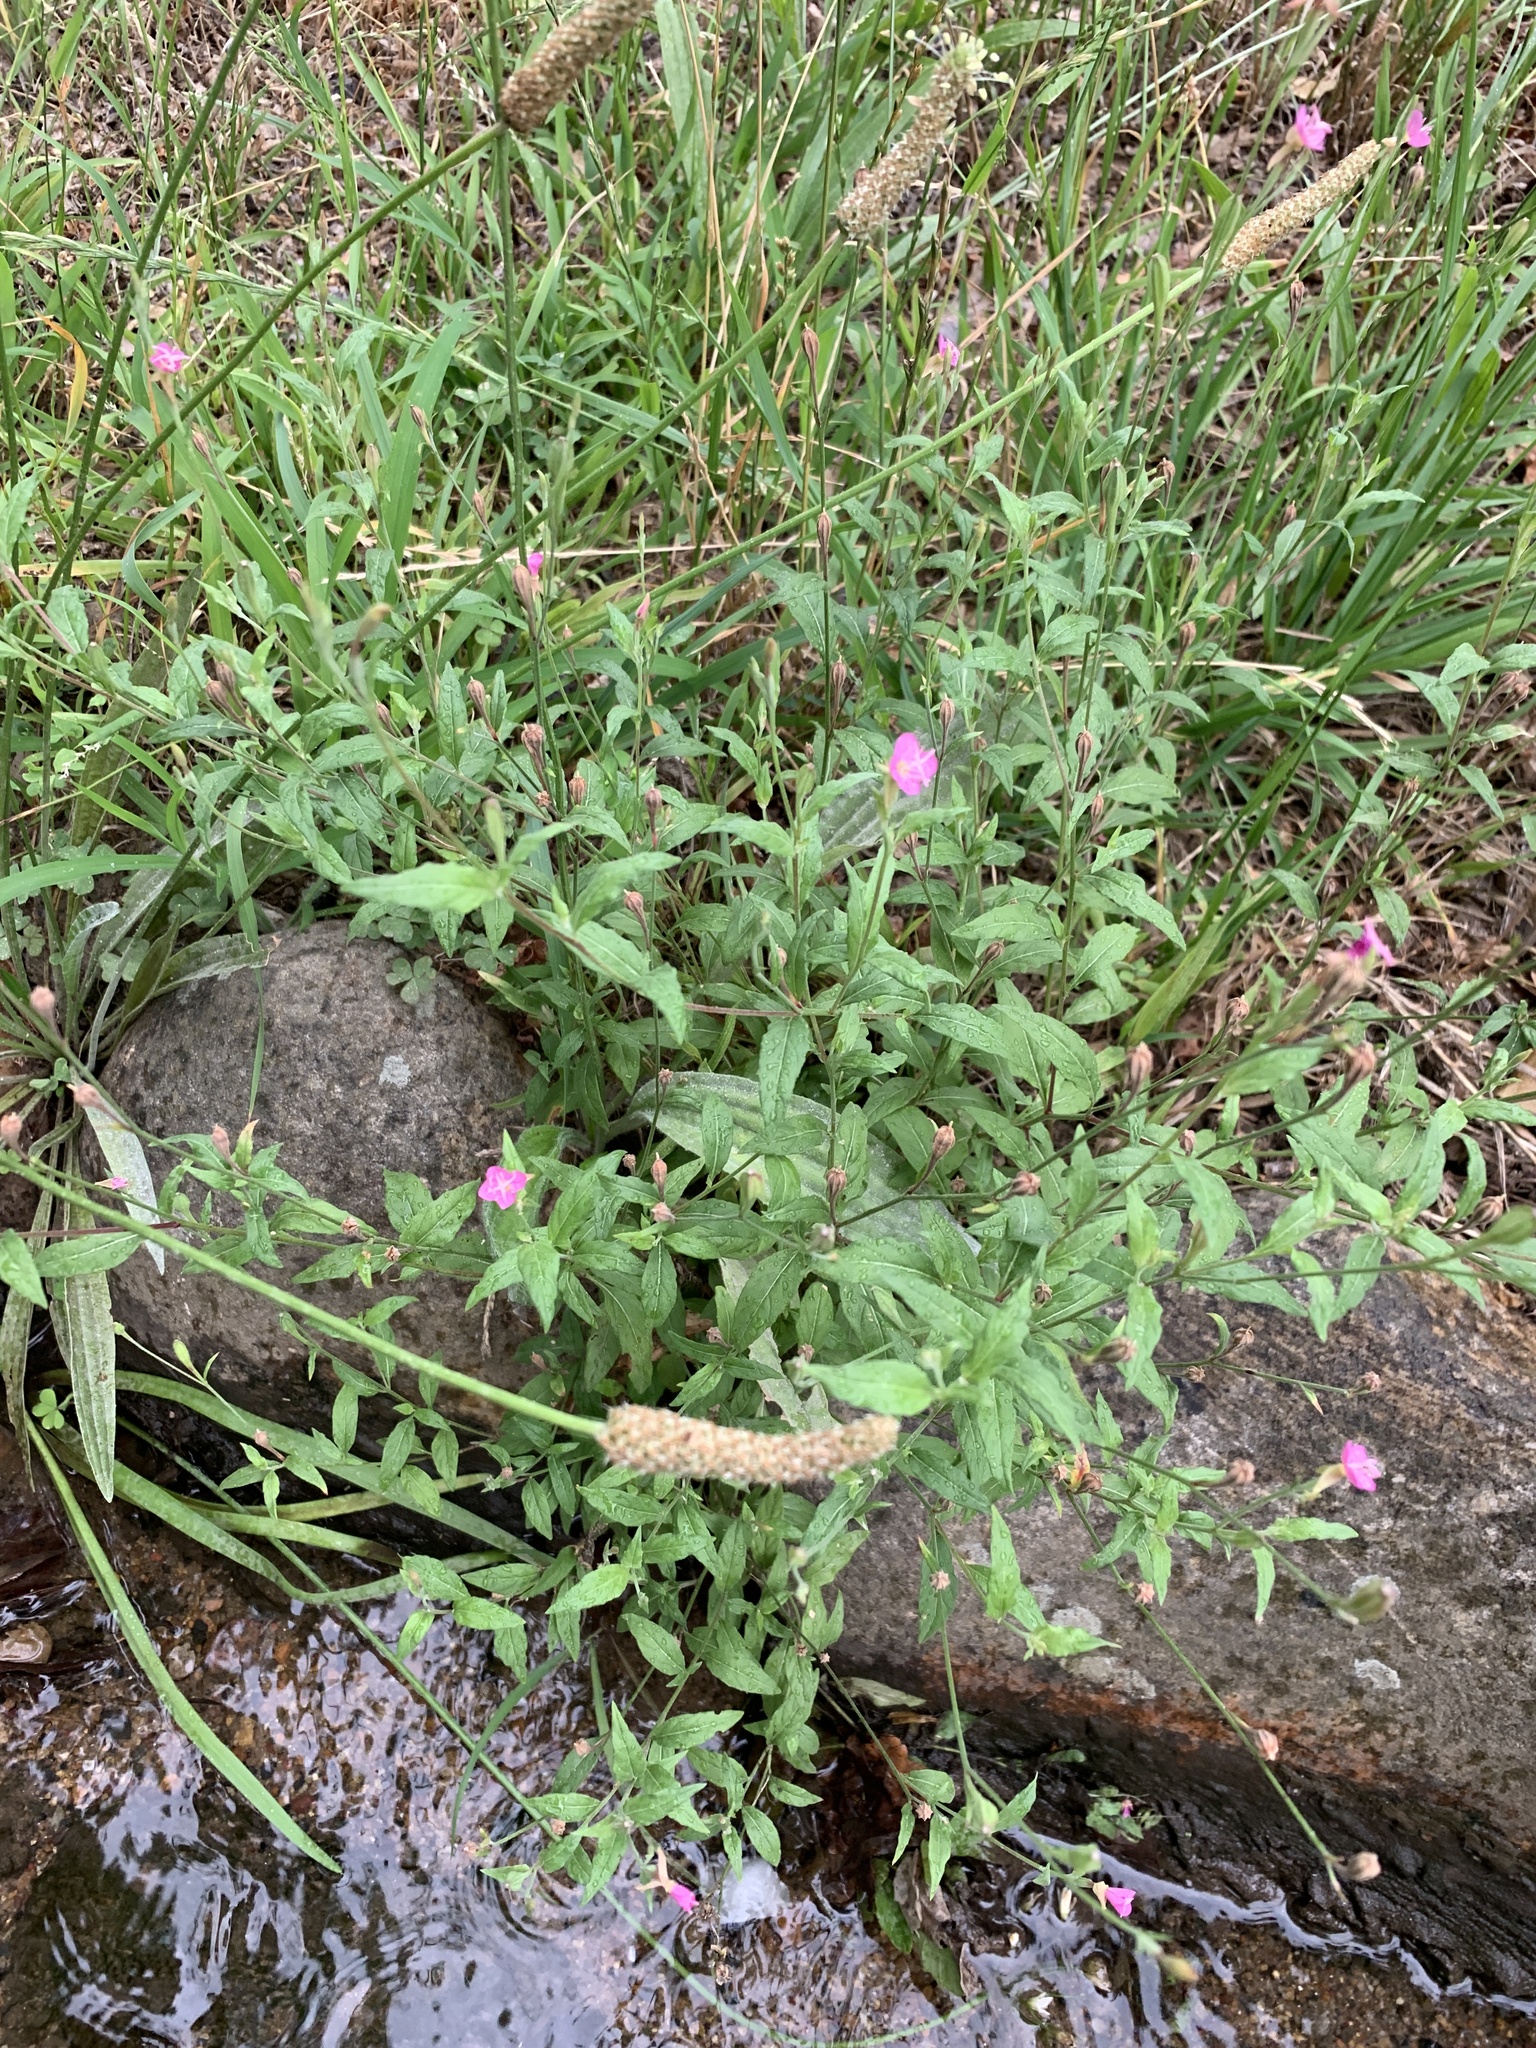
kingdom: Plantae
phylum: Tracheophyta
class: Magnoliopsida
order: Myrtales
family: Onagraceae
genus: Oenothera
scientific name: Oenothera rosea
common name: Rosy evening-primrose
